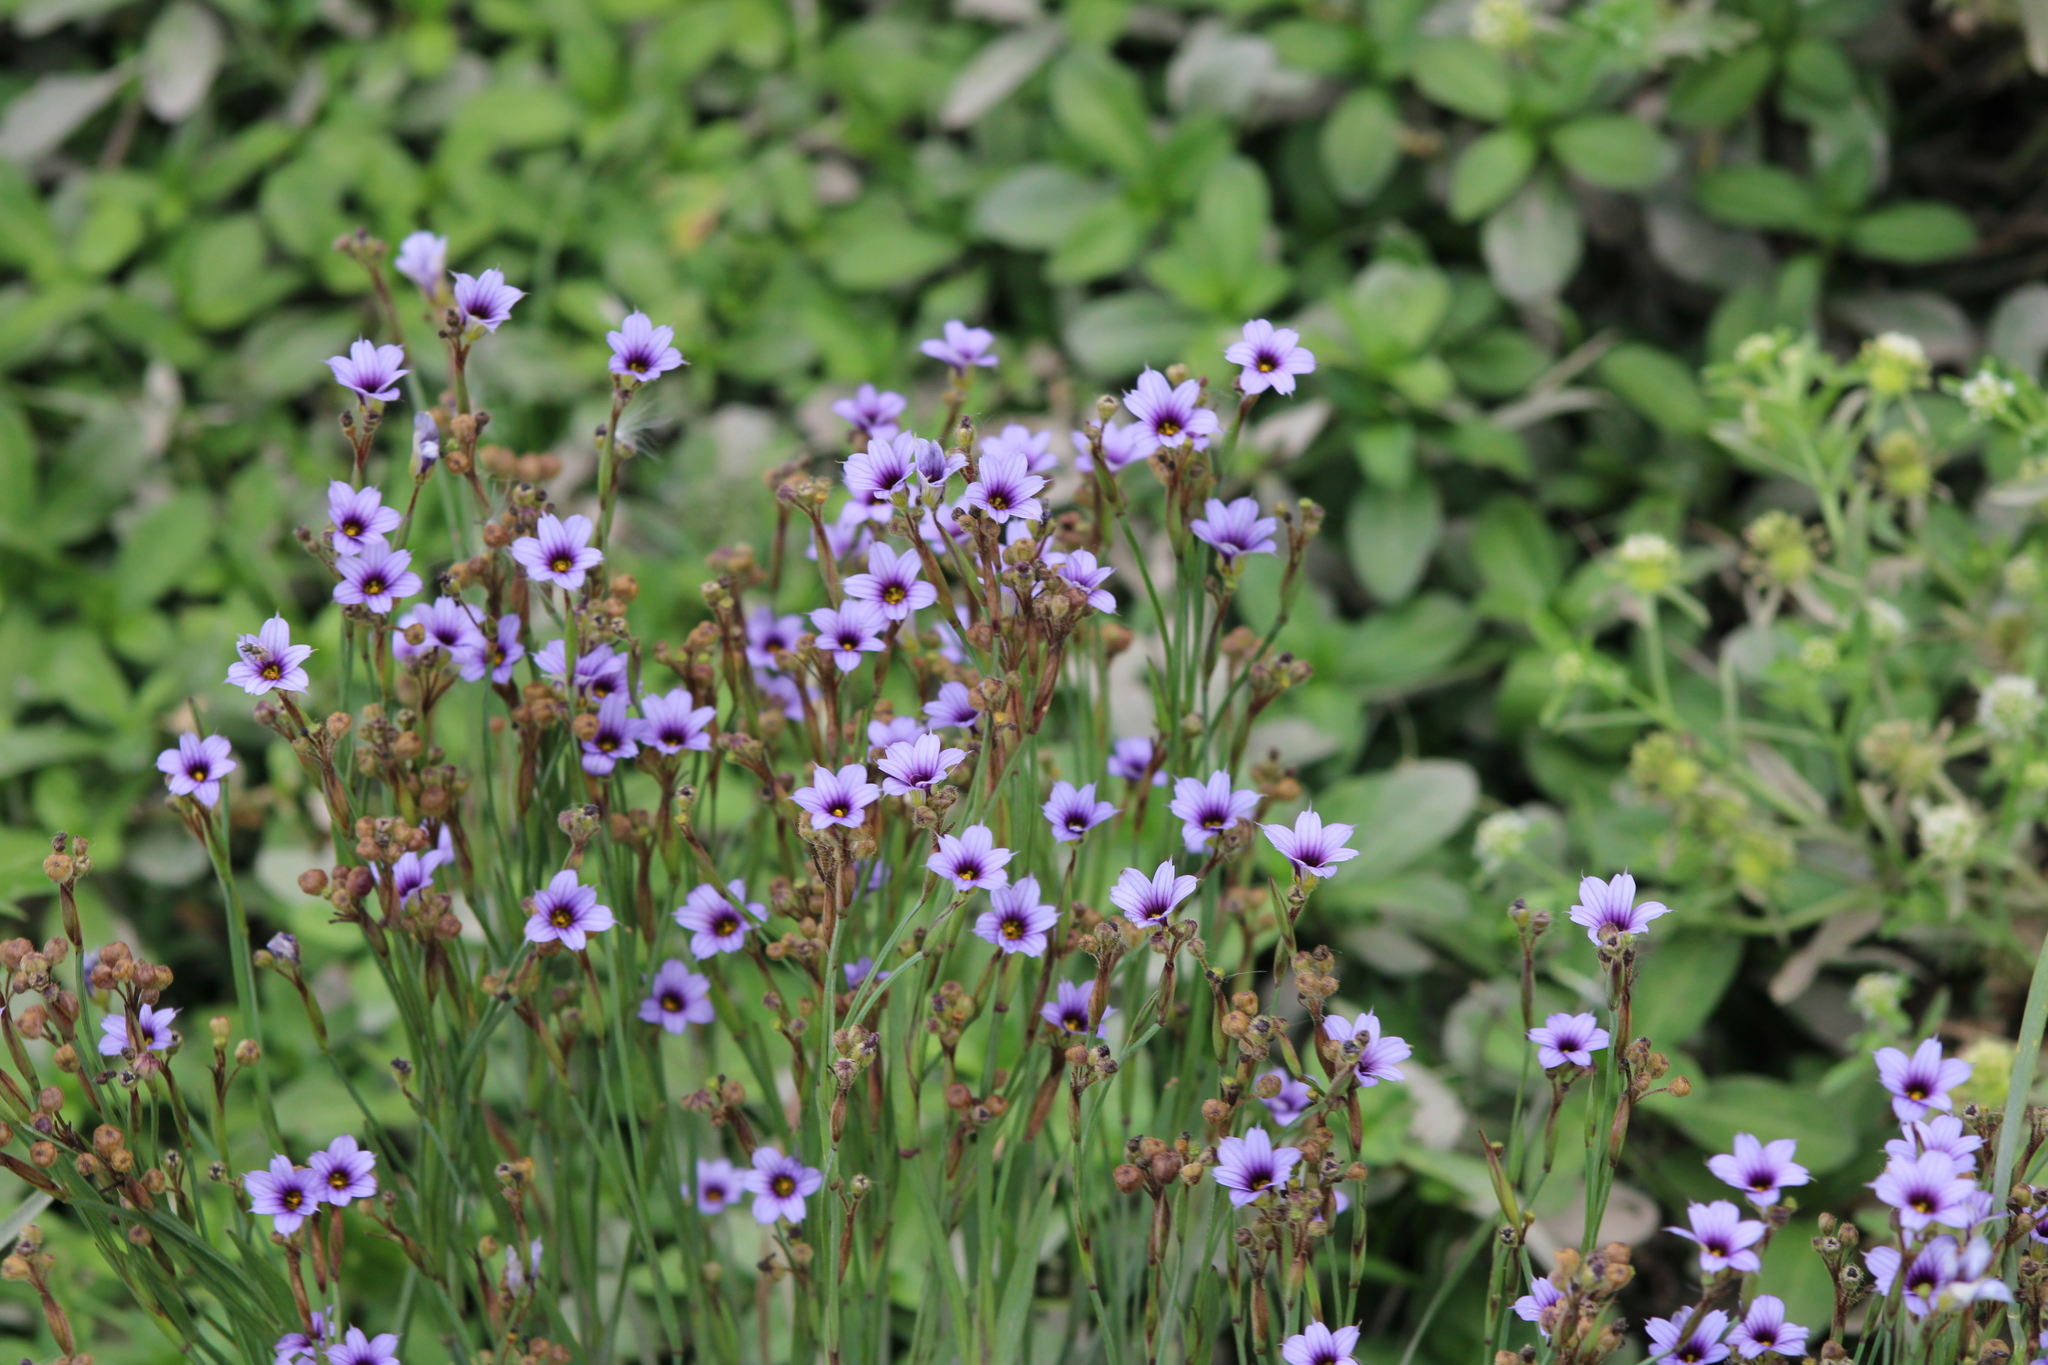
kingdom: Plantae
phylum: Tracheophyta
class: Liliopsida
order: Asparagales
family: Iridaceae
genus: Sisyrinchium
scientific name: Sisyrinchium platense
